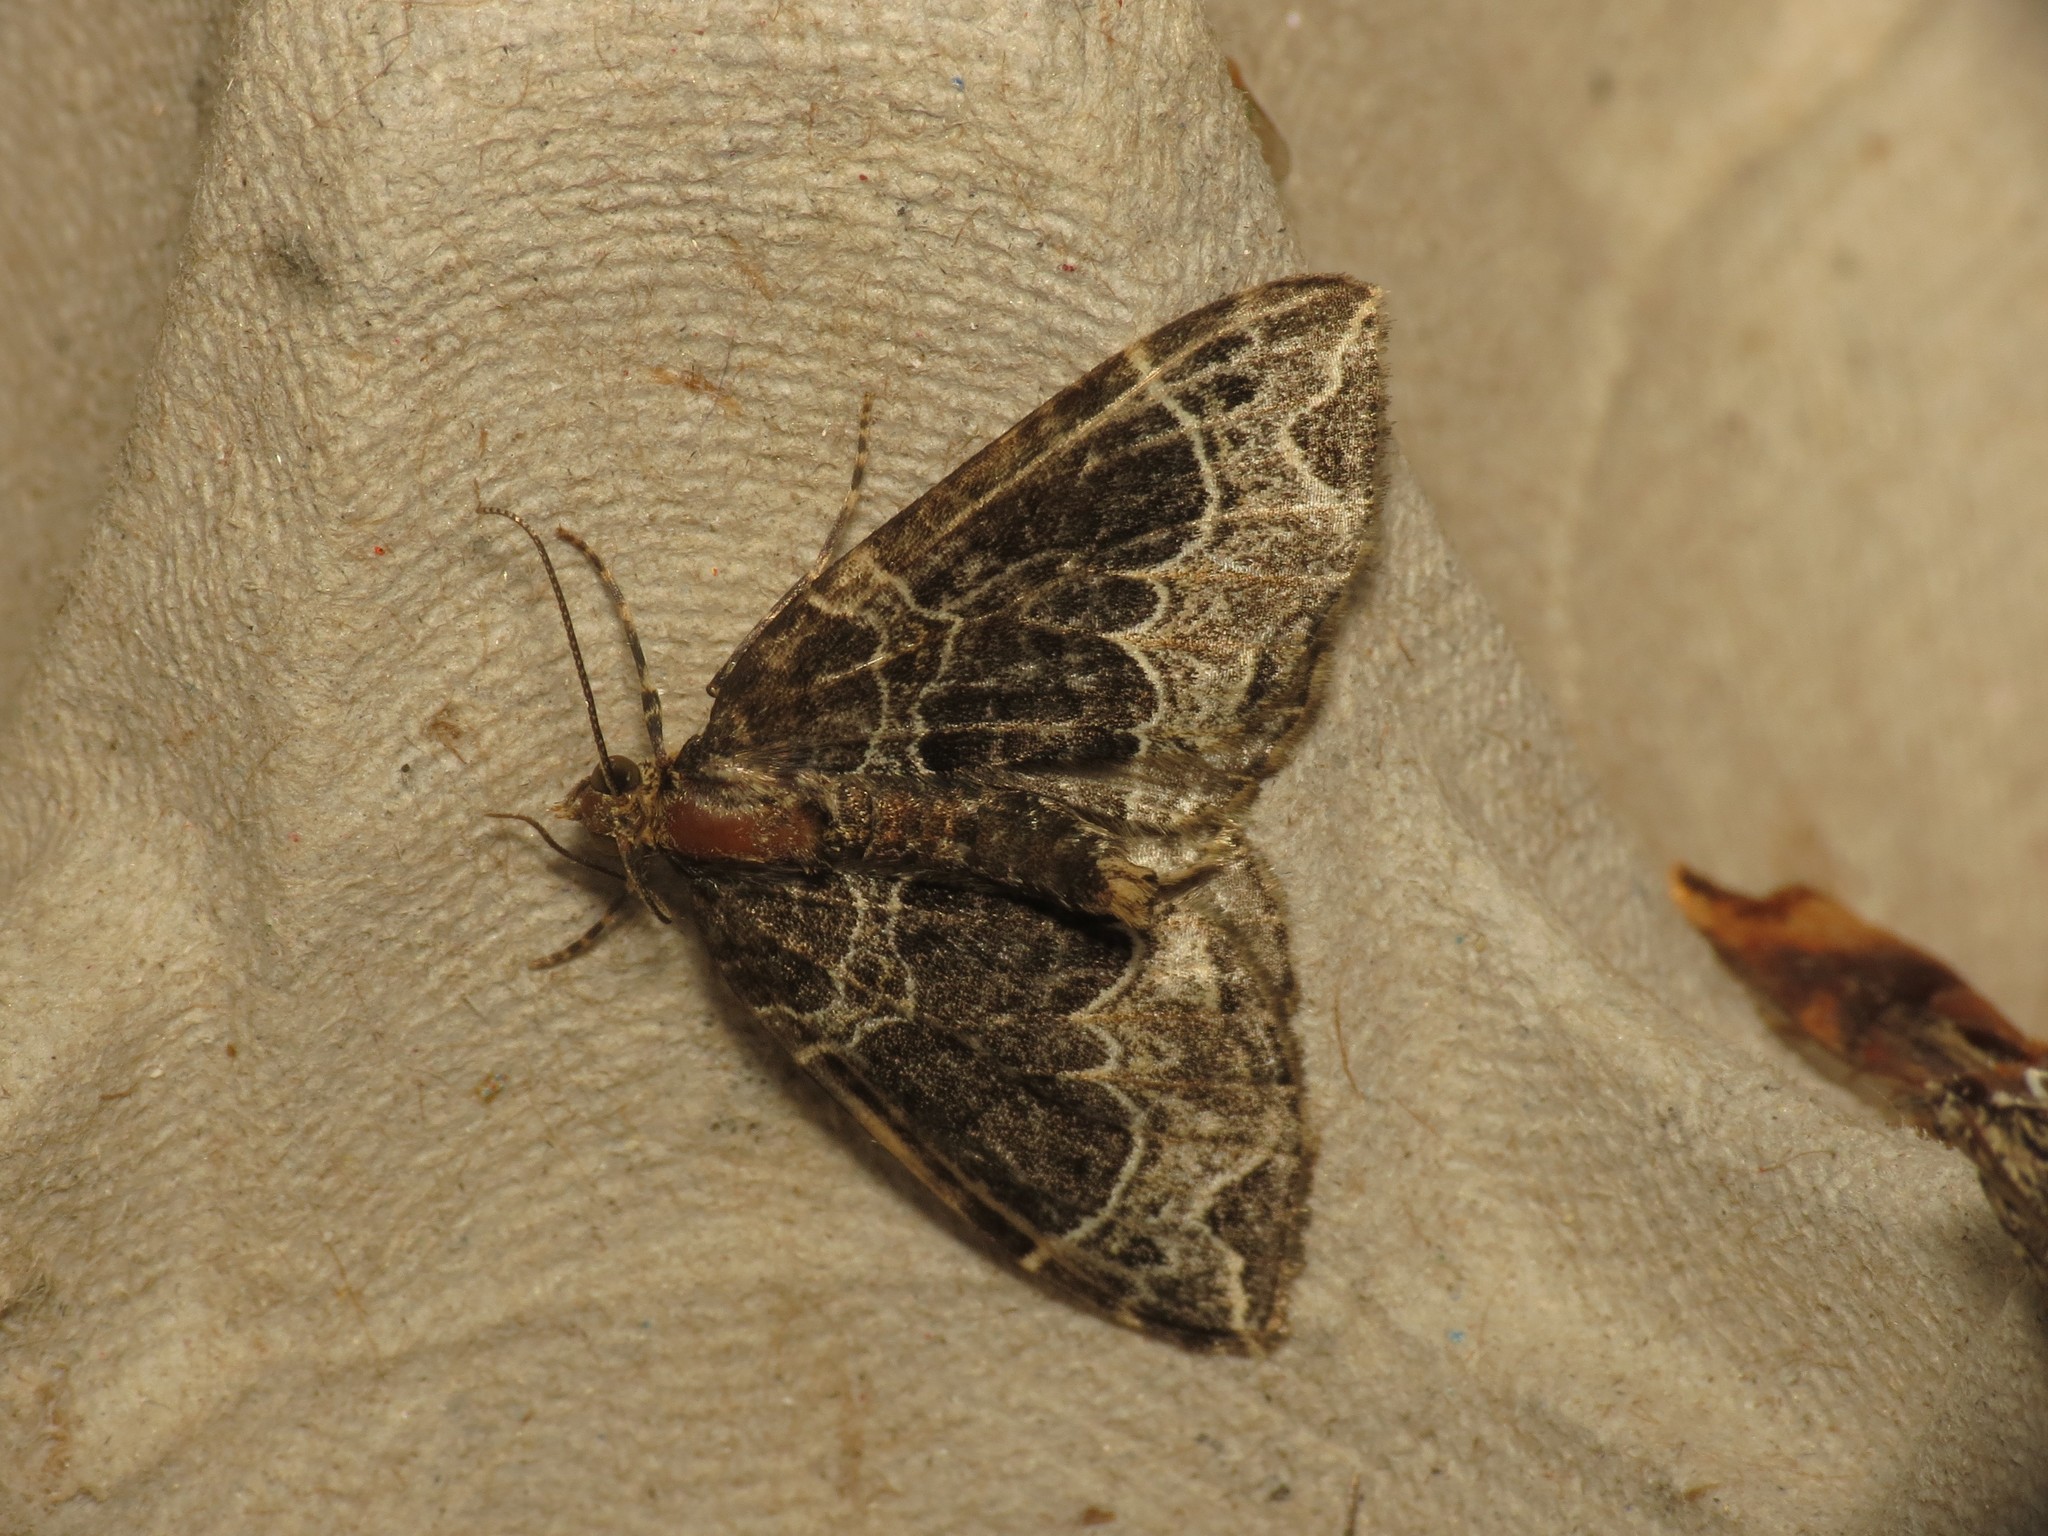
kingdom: Animalia
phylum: Arthropoda
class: Insecta
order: Lepidoptera
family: Geometridae
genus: Ecliptopera
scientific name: Ecliptopera silaceata
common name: Small phoenix
